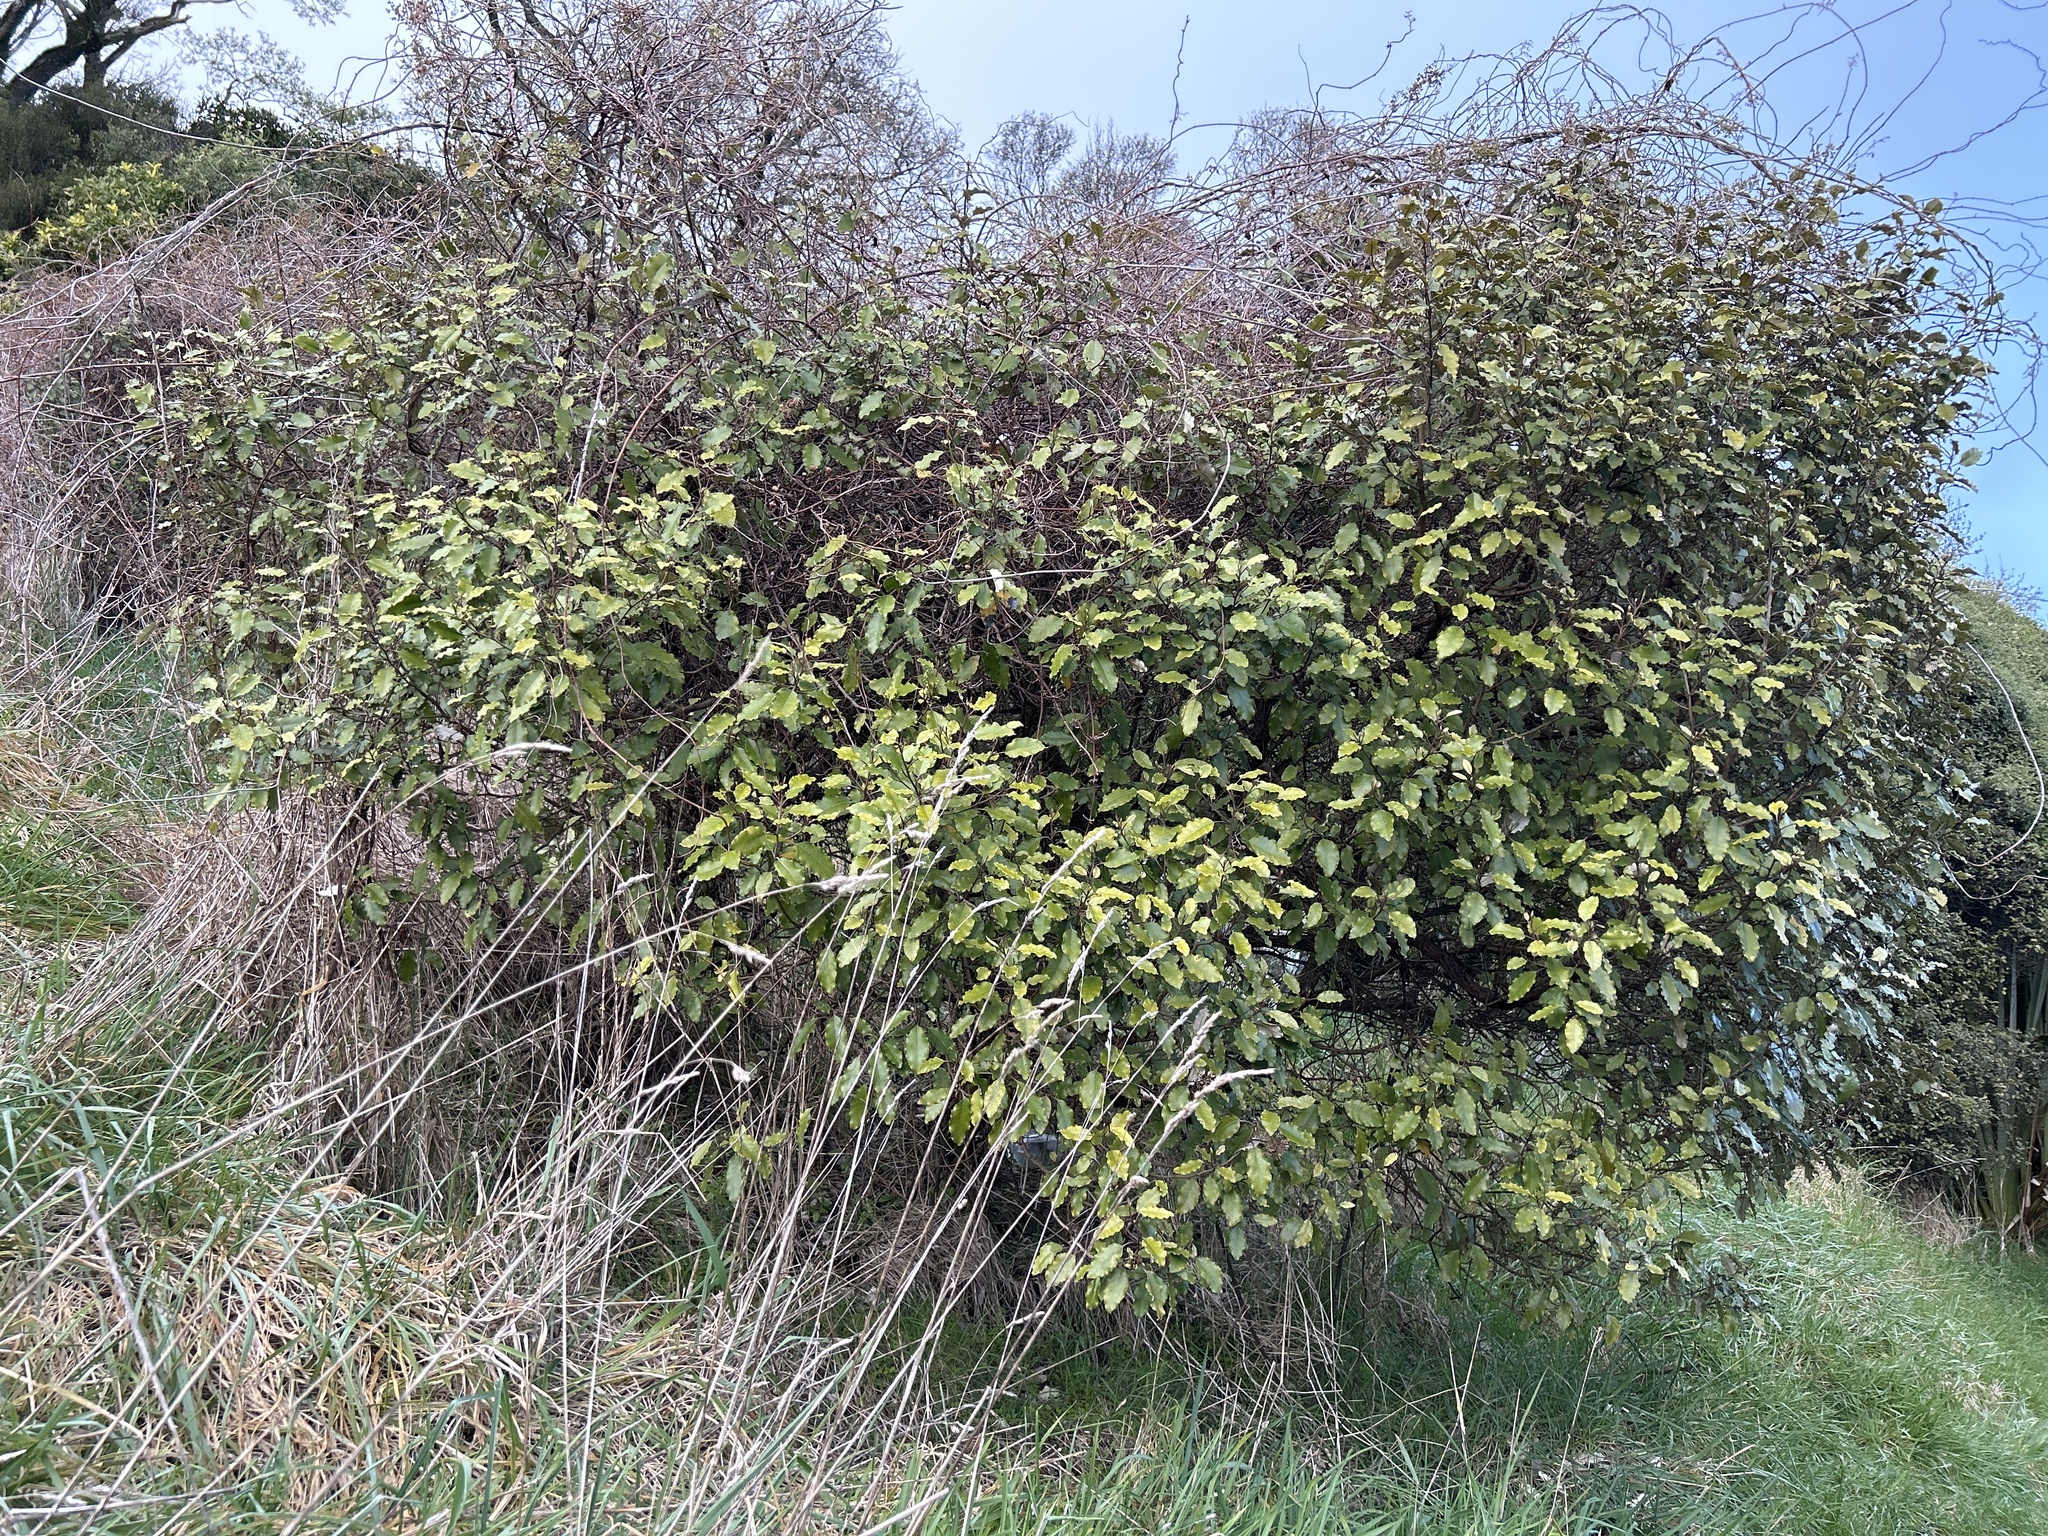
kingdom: Plantae
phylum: Tracheophyta
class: Magnoliopsida
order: Asterales
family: Asteraceae
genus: Olearia
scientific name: Olearia paniculata
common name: Akiraho
